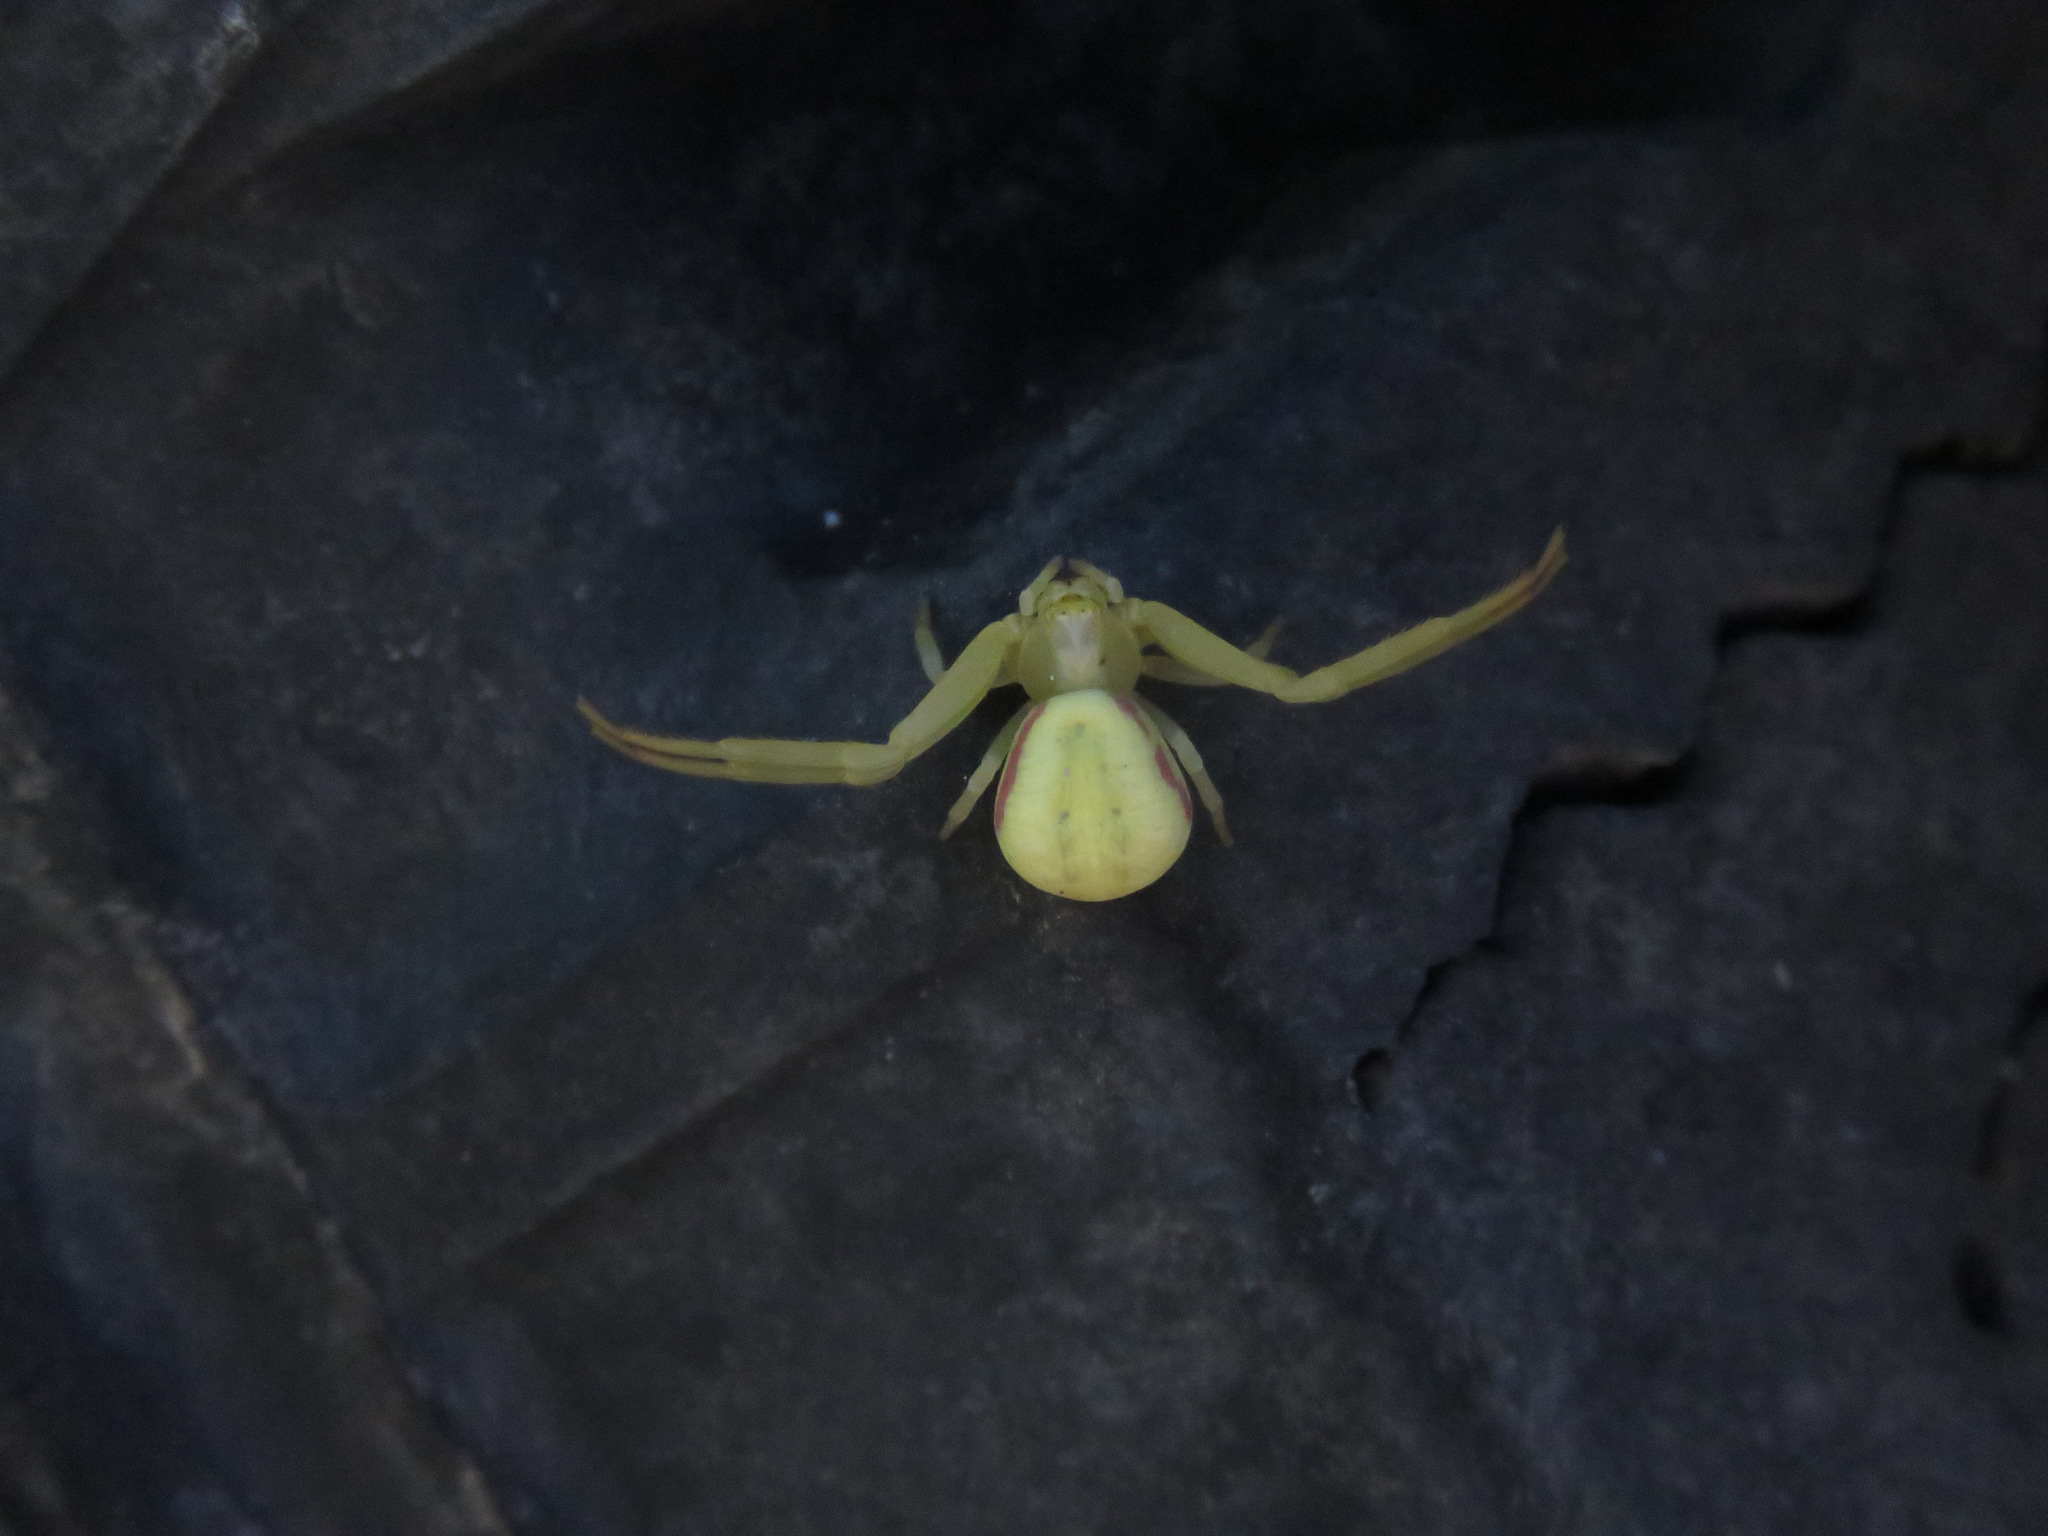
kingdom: Animalia
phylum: Arthropoda
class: Arachnida
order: Araneae
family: Thomisidae
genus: Misumena
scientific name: Misumena vatia
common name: Goldenrod crab spider
